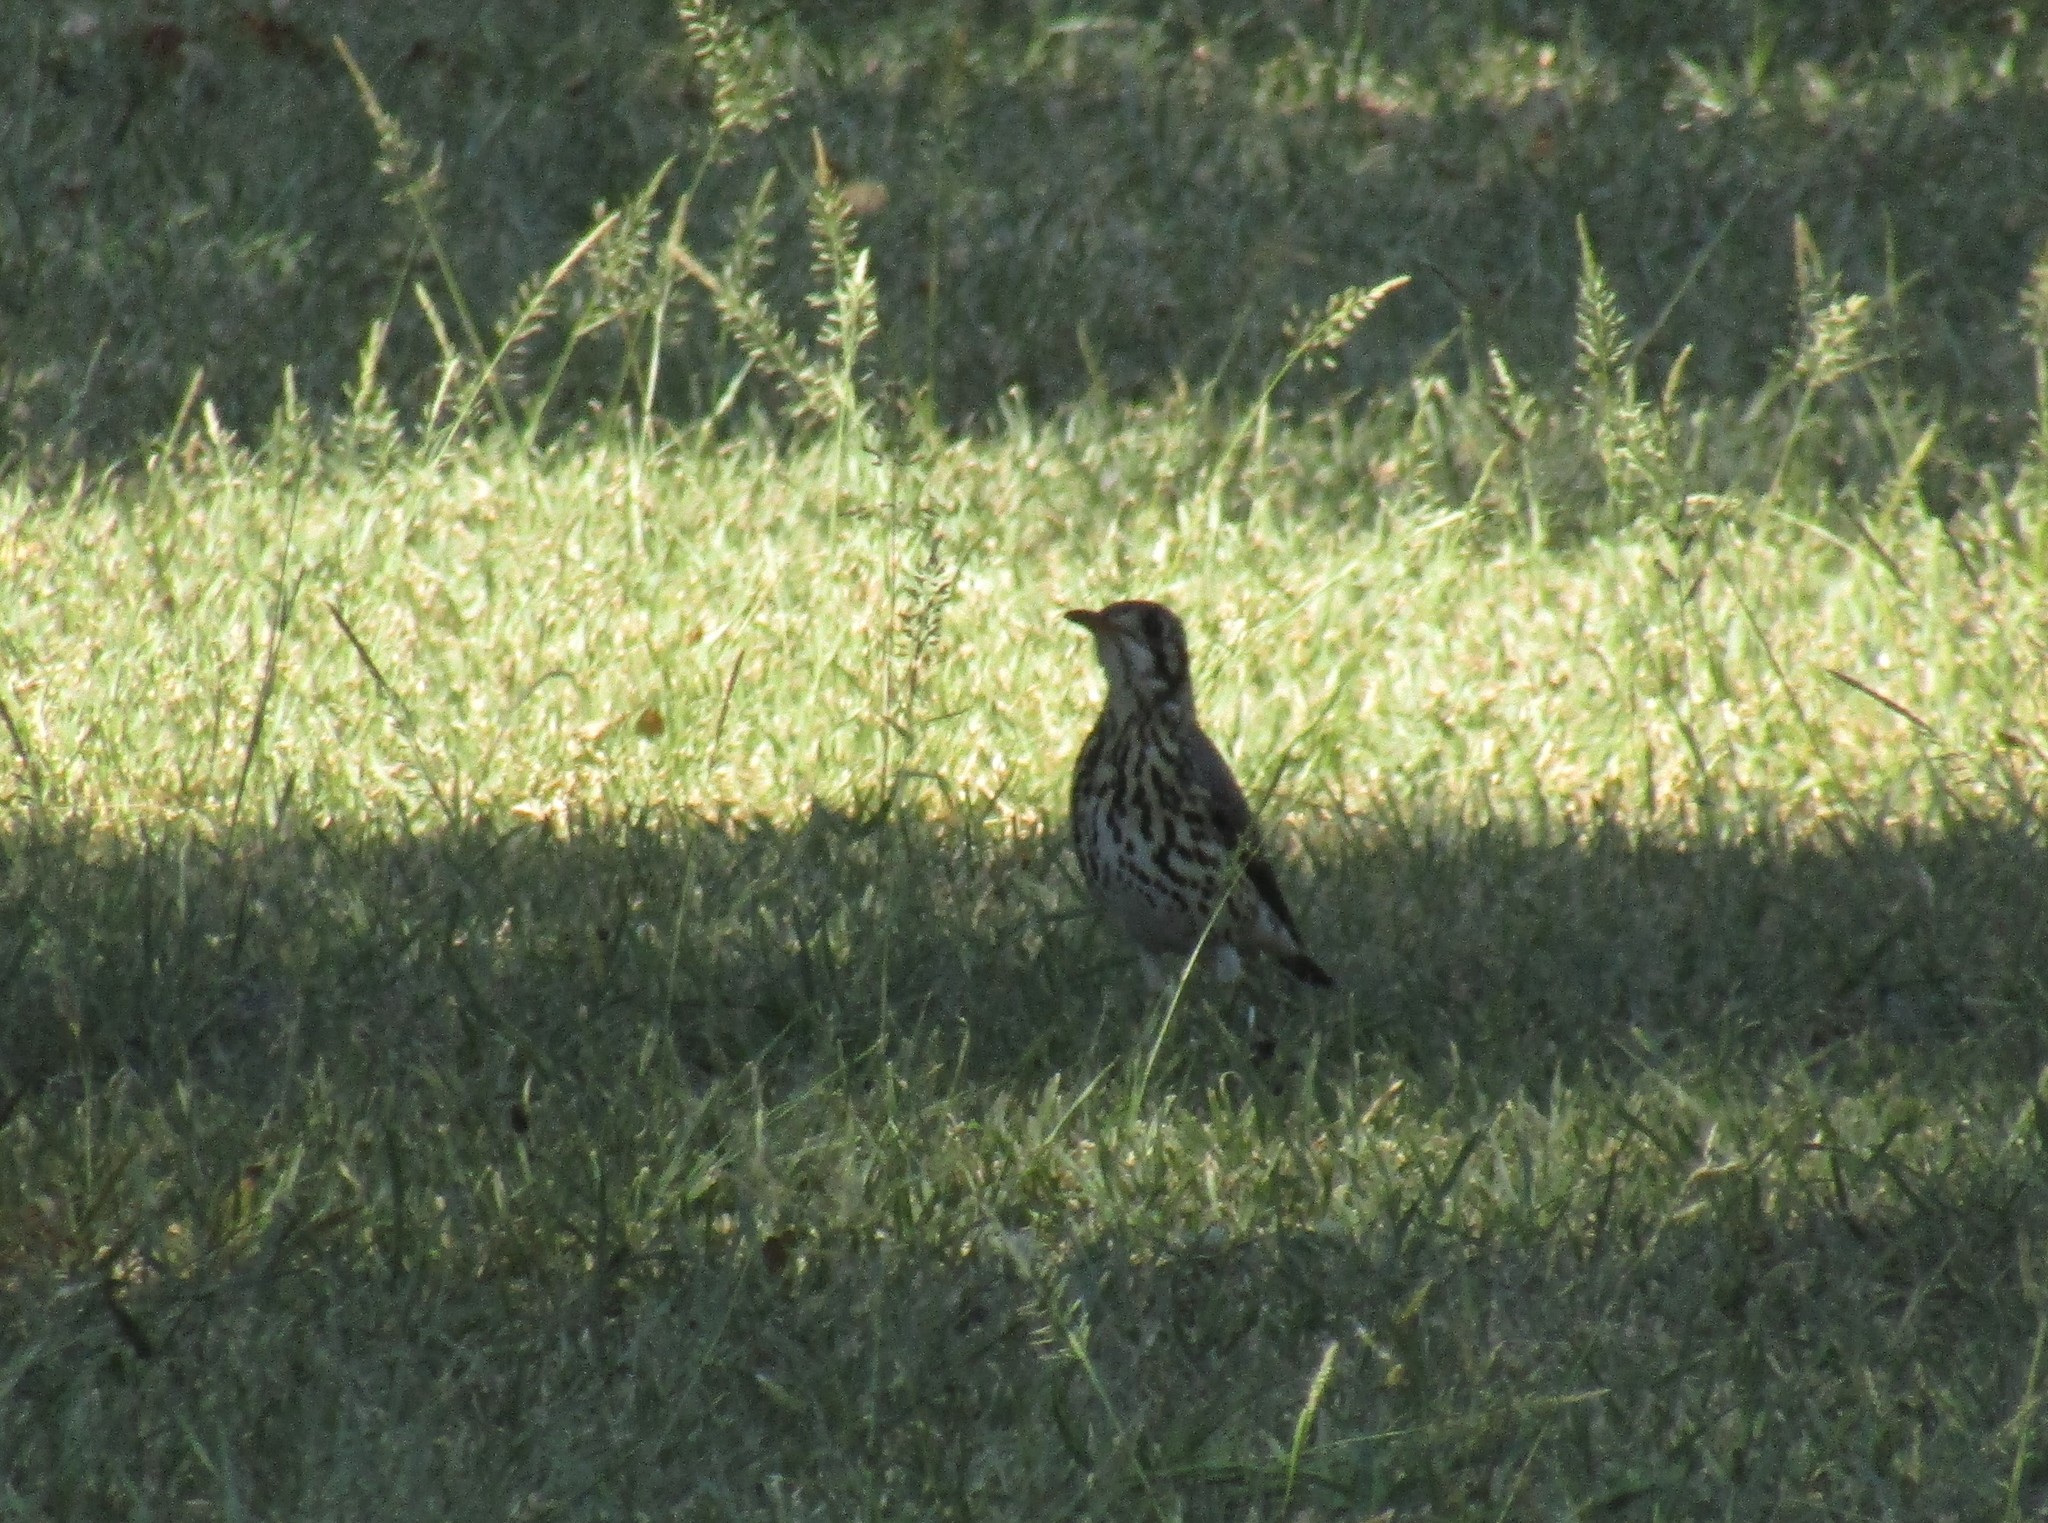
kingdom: Animalia
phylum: Chordata
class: Aves
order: Passeriformes
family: Turdidae
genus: Psophocichla
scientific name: Psophocichla litsitsirupa
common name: Groundscraper thrush
